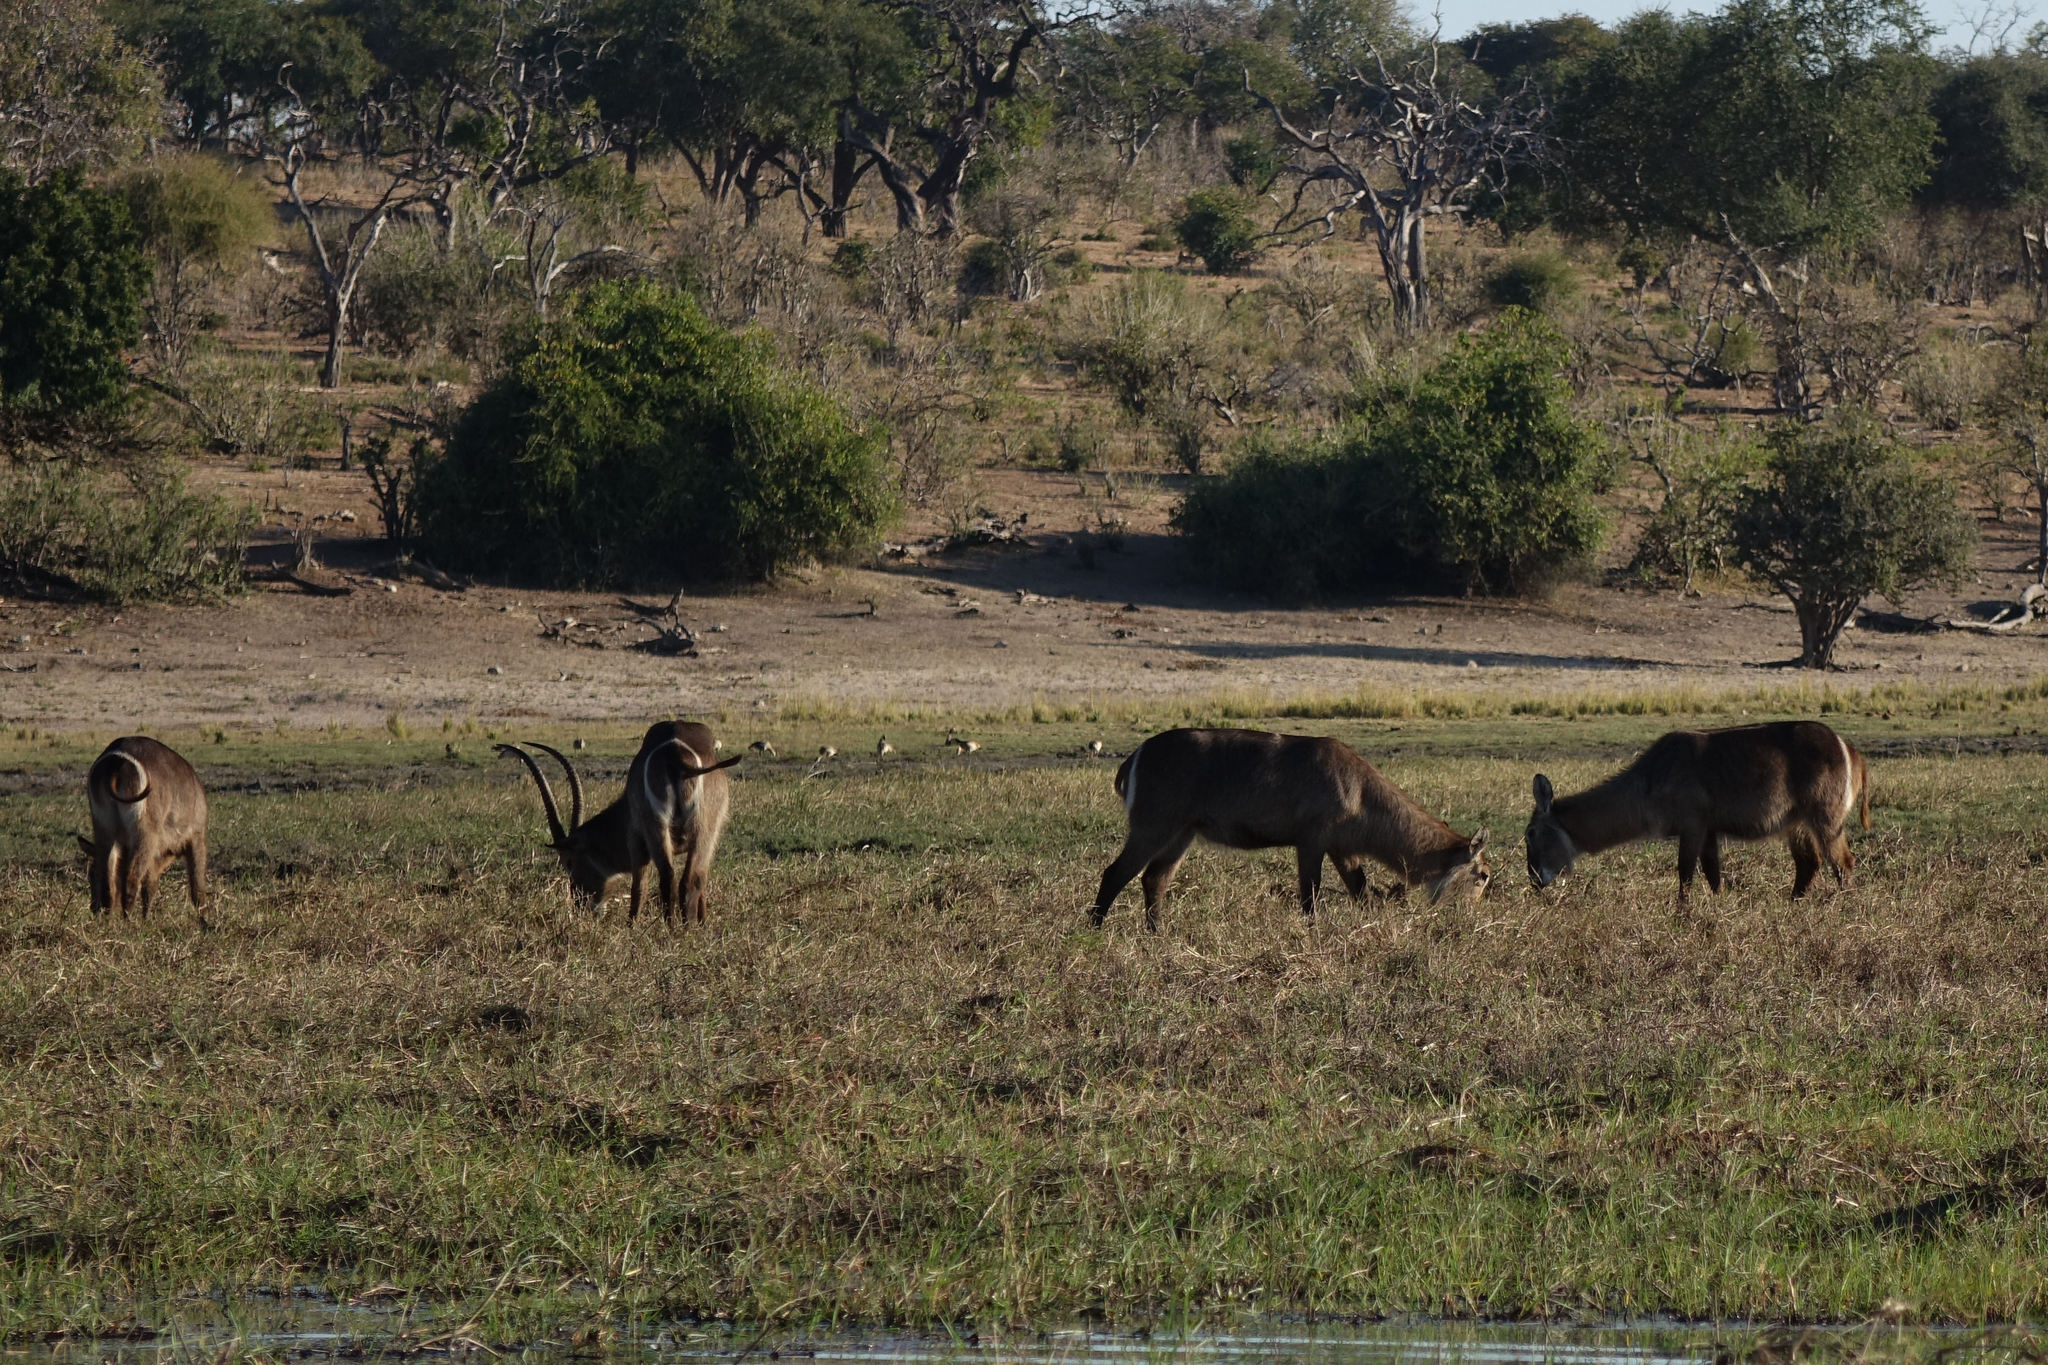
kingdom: Animalia
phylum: Chordata
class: Mammalia
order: Artiodactyla
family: Bovidae
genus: Kobus
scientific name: Kobus ellipsiprymnus
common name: Waterbuck
